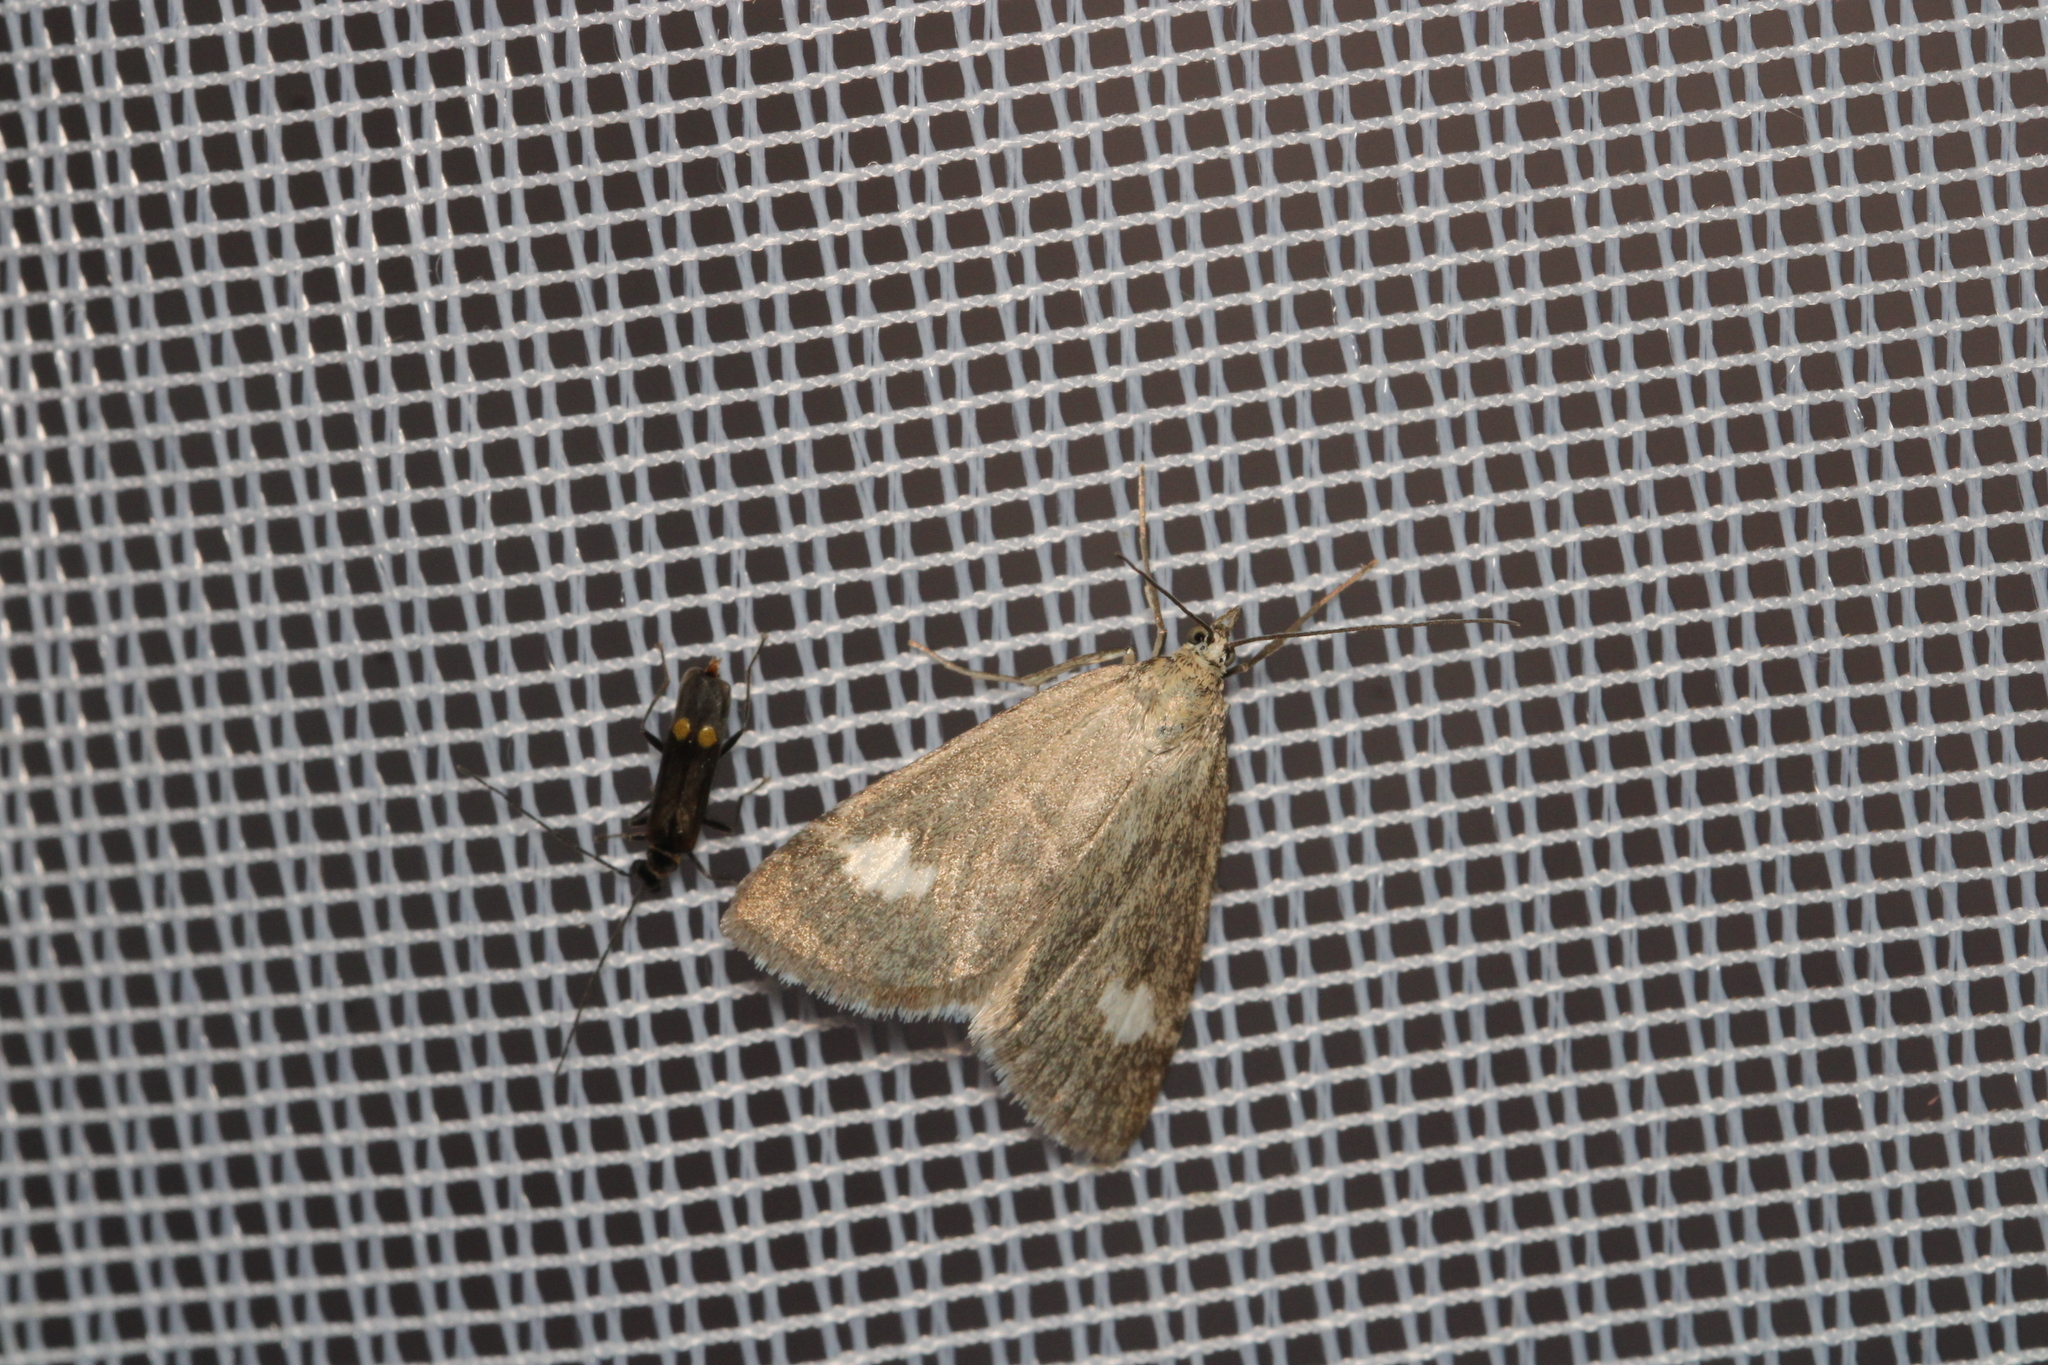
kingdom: Animalia
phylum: Arthropoda
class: Insecta
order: Lepidoptera
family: Crambidae
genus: Pyrausta
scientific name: Pyrausta alpinalis
